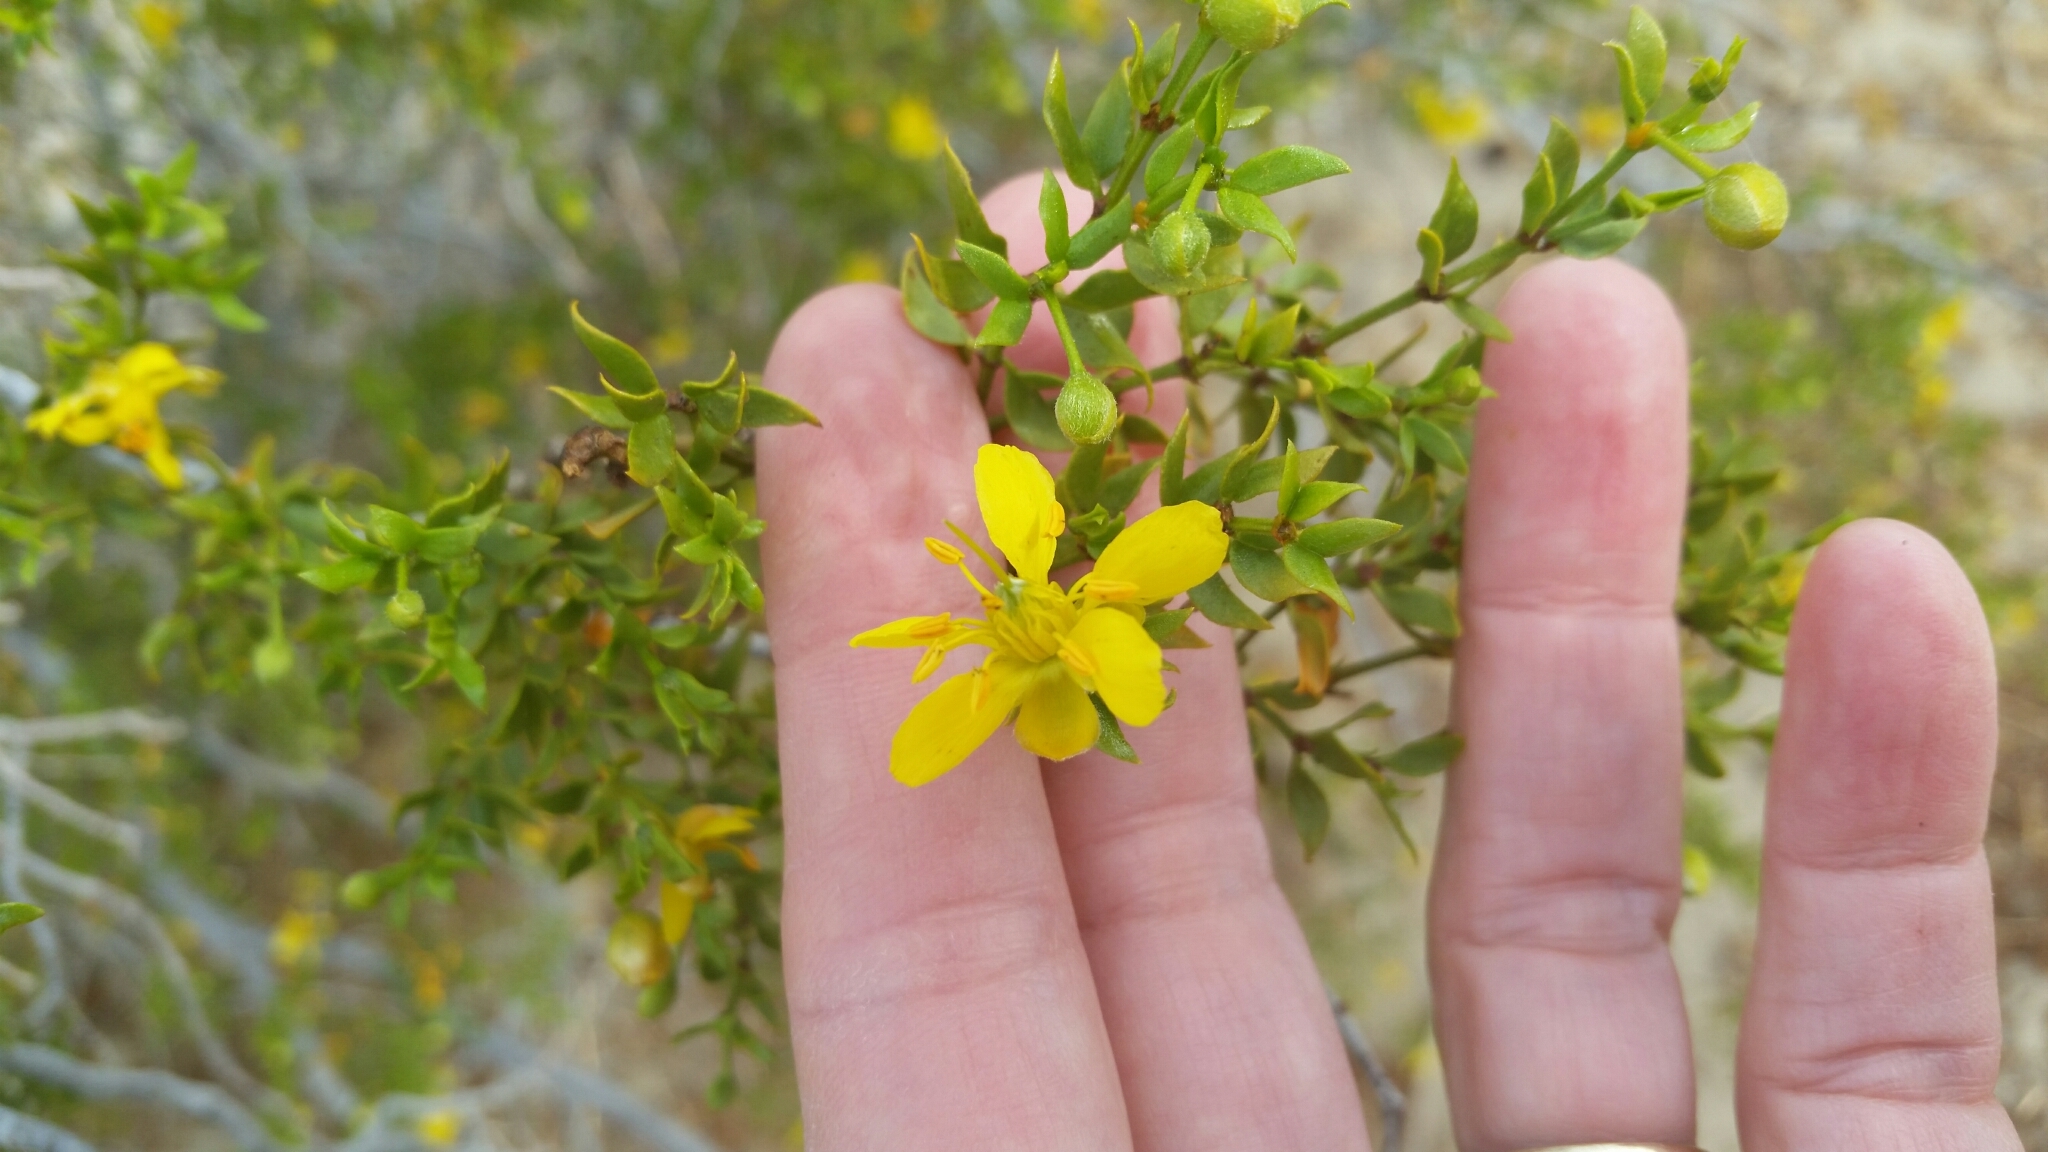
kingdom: Plantae
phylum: Tracheophyta
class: Magnoliopsida
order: Zygophyllales
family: Zygophyllaceae
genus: Larrea
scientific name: Larrea tridentata
